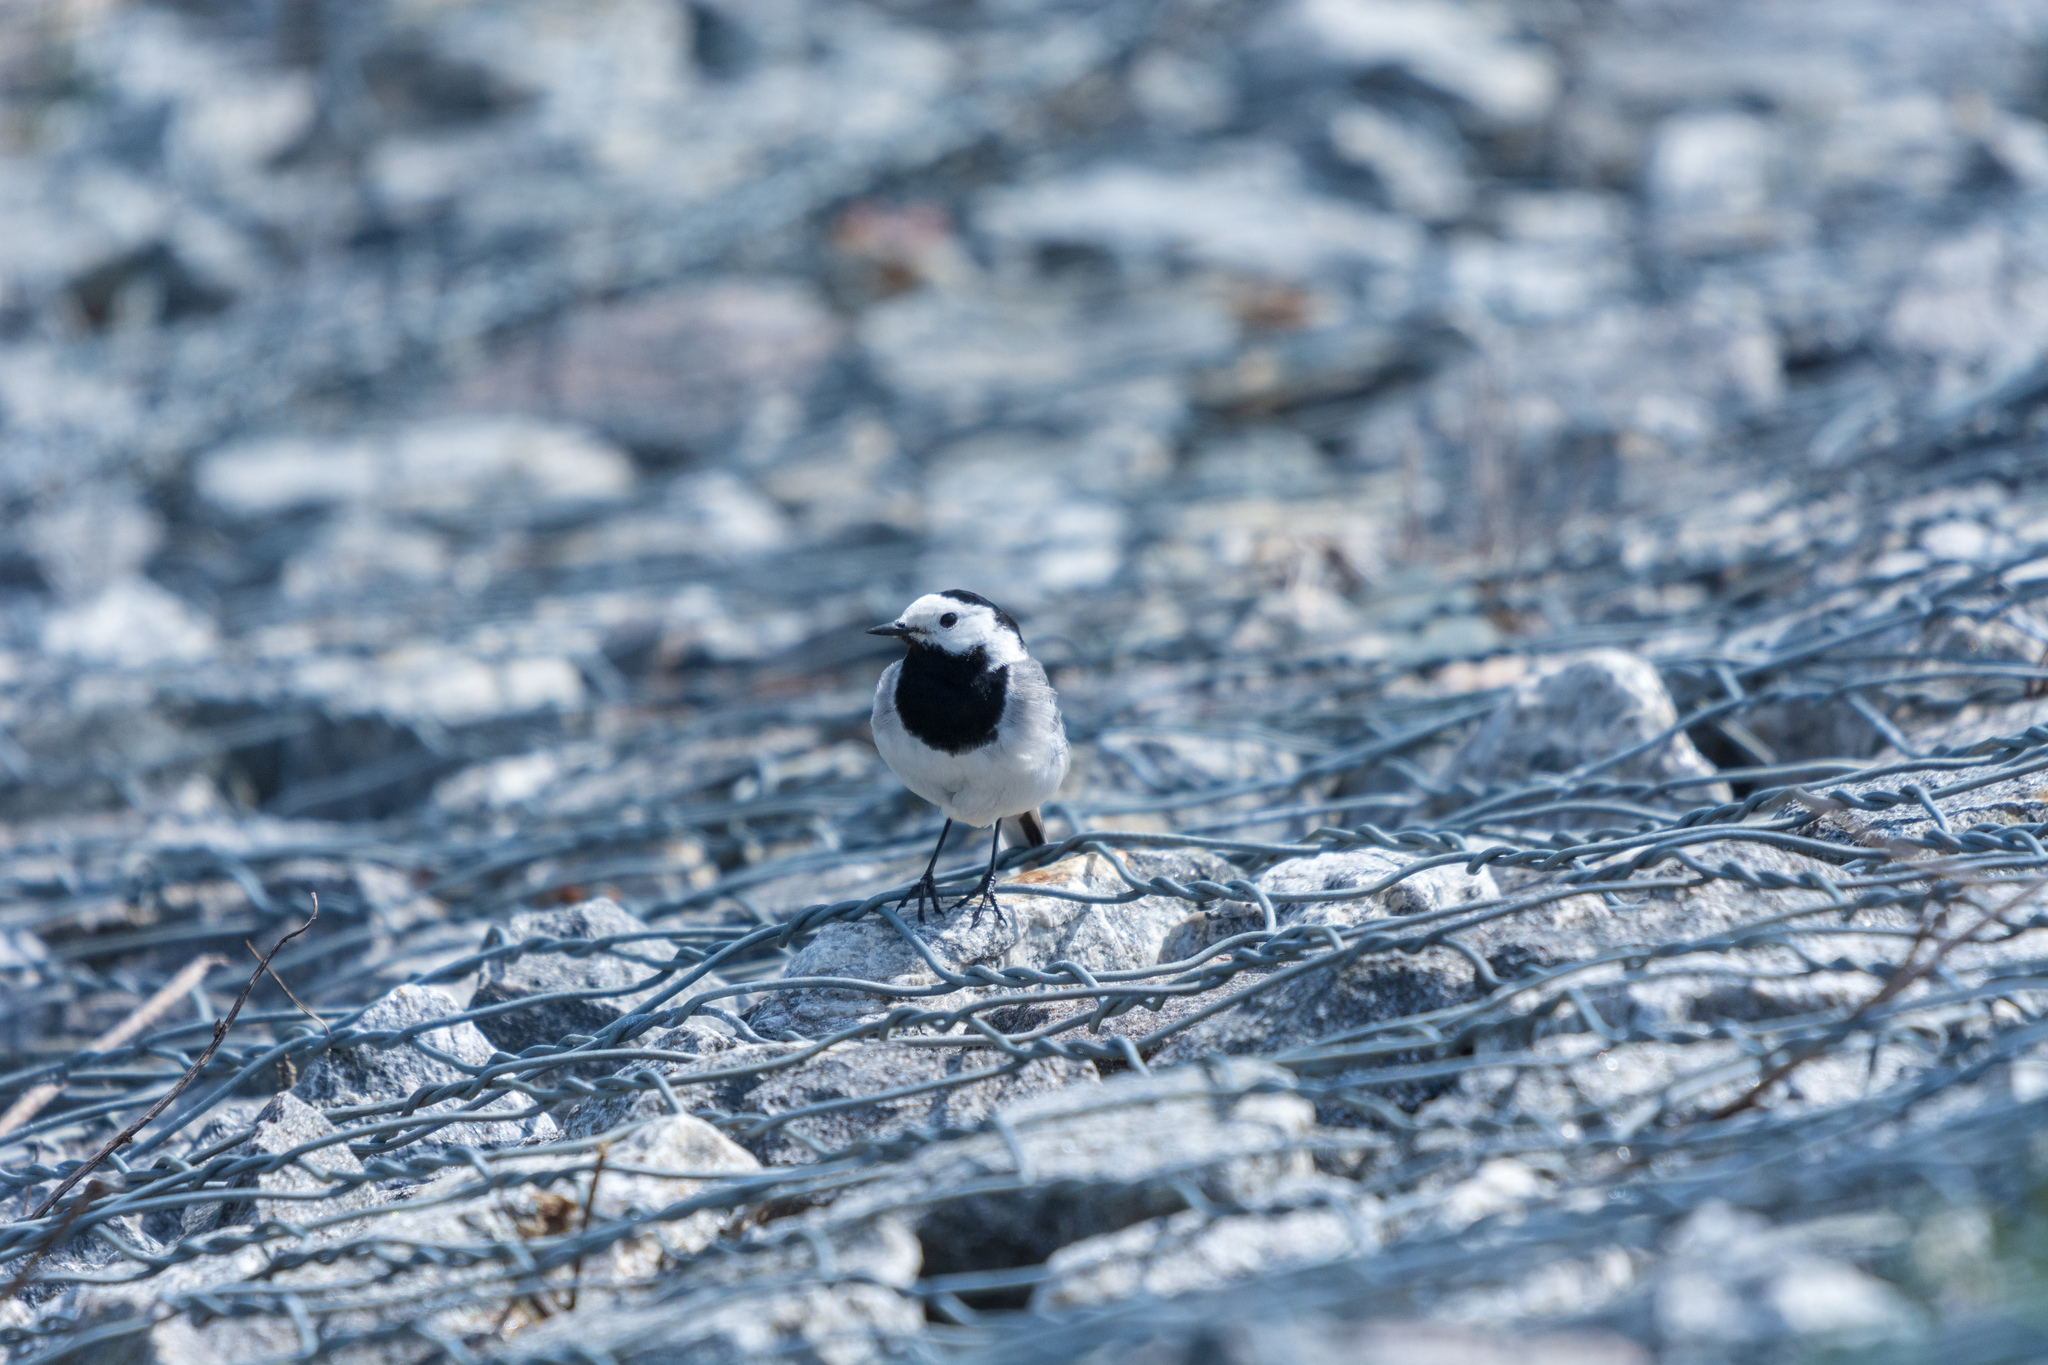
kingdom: Animalia
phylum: Chordata
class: Aves
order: Passeriformes
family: Motacillidae
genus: Motacilla
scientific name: Motacilla alba
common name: White wagtail
